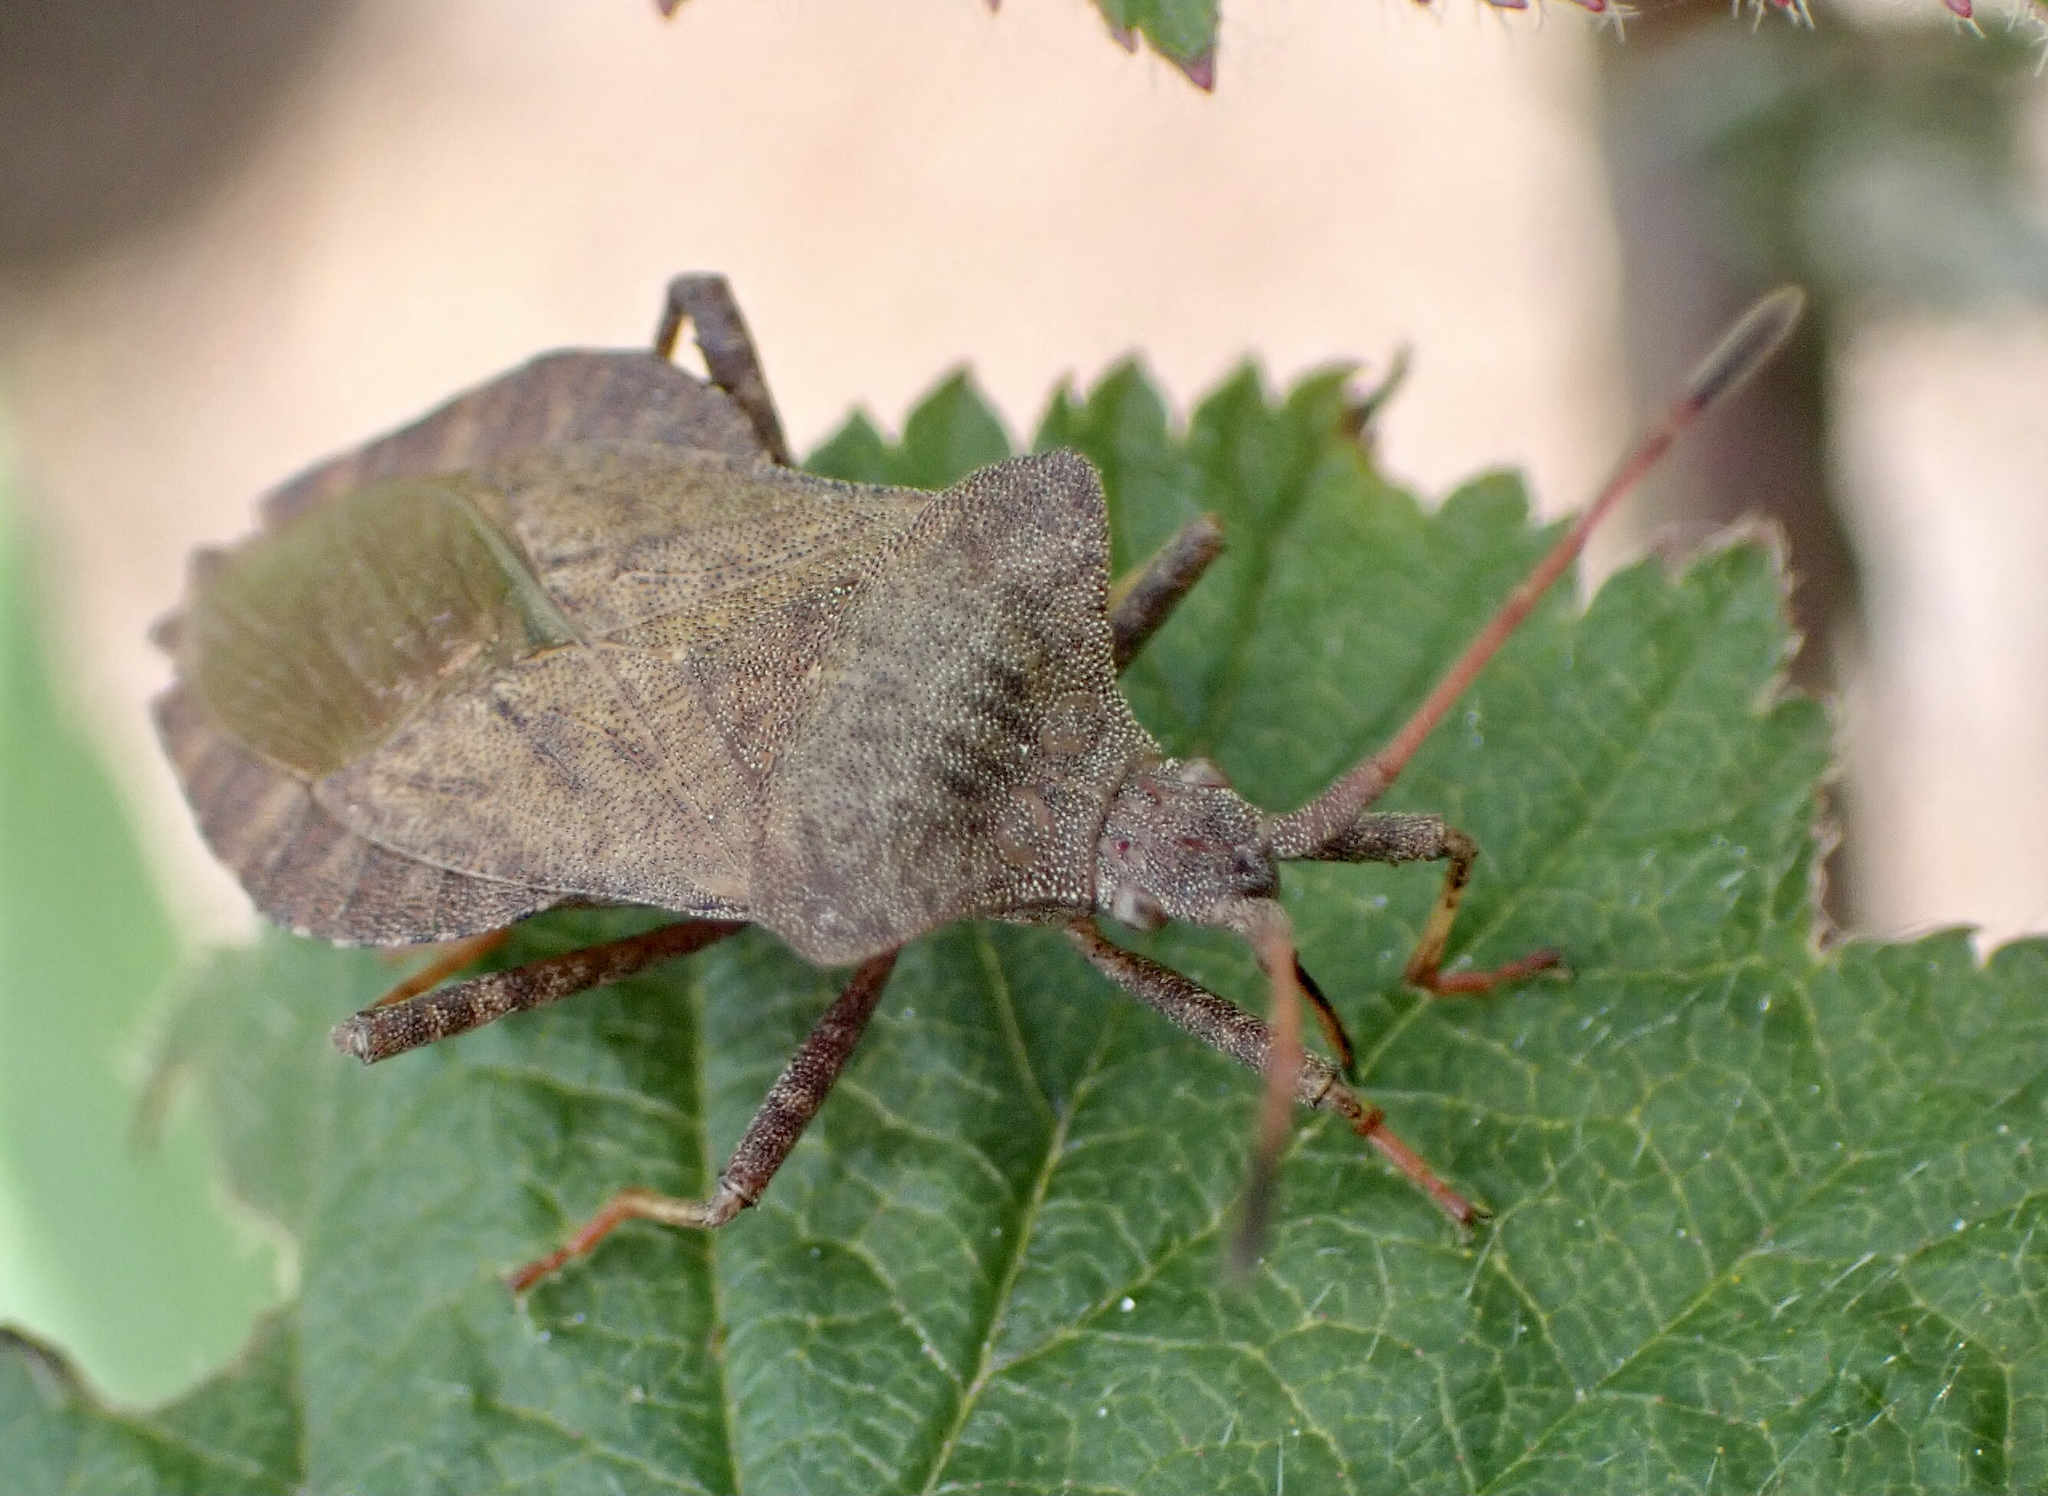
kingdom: Animalia
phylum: Arthropoda
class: Insecta
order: Hemiptera
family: Coreidae
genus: Coreus
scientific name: Coreus marginatus
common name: Dock bug
